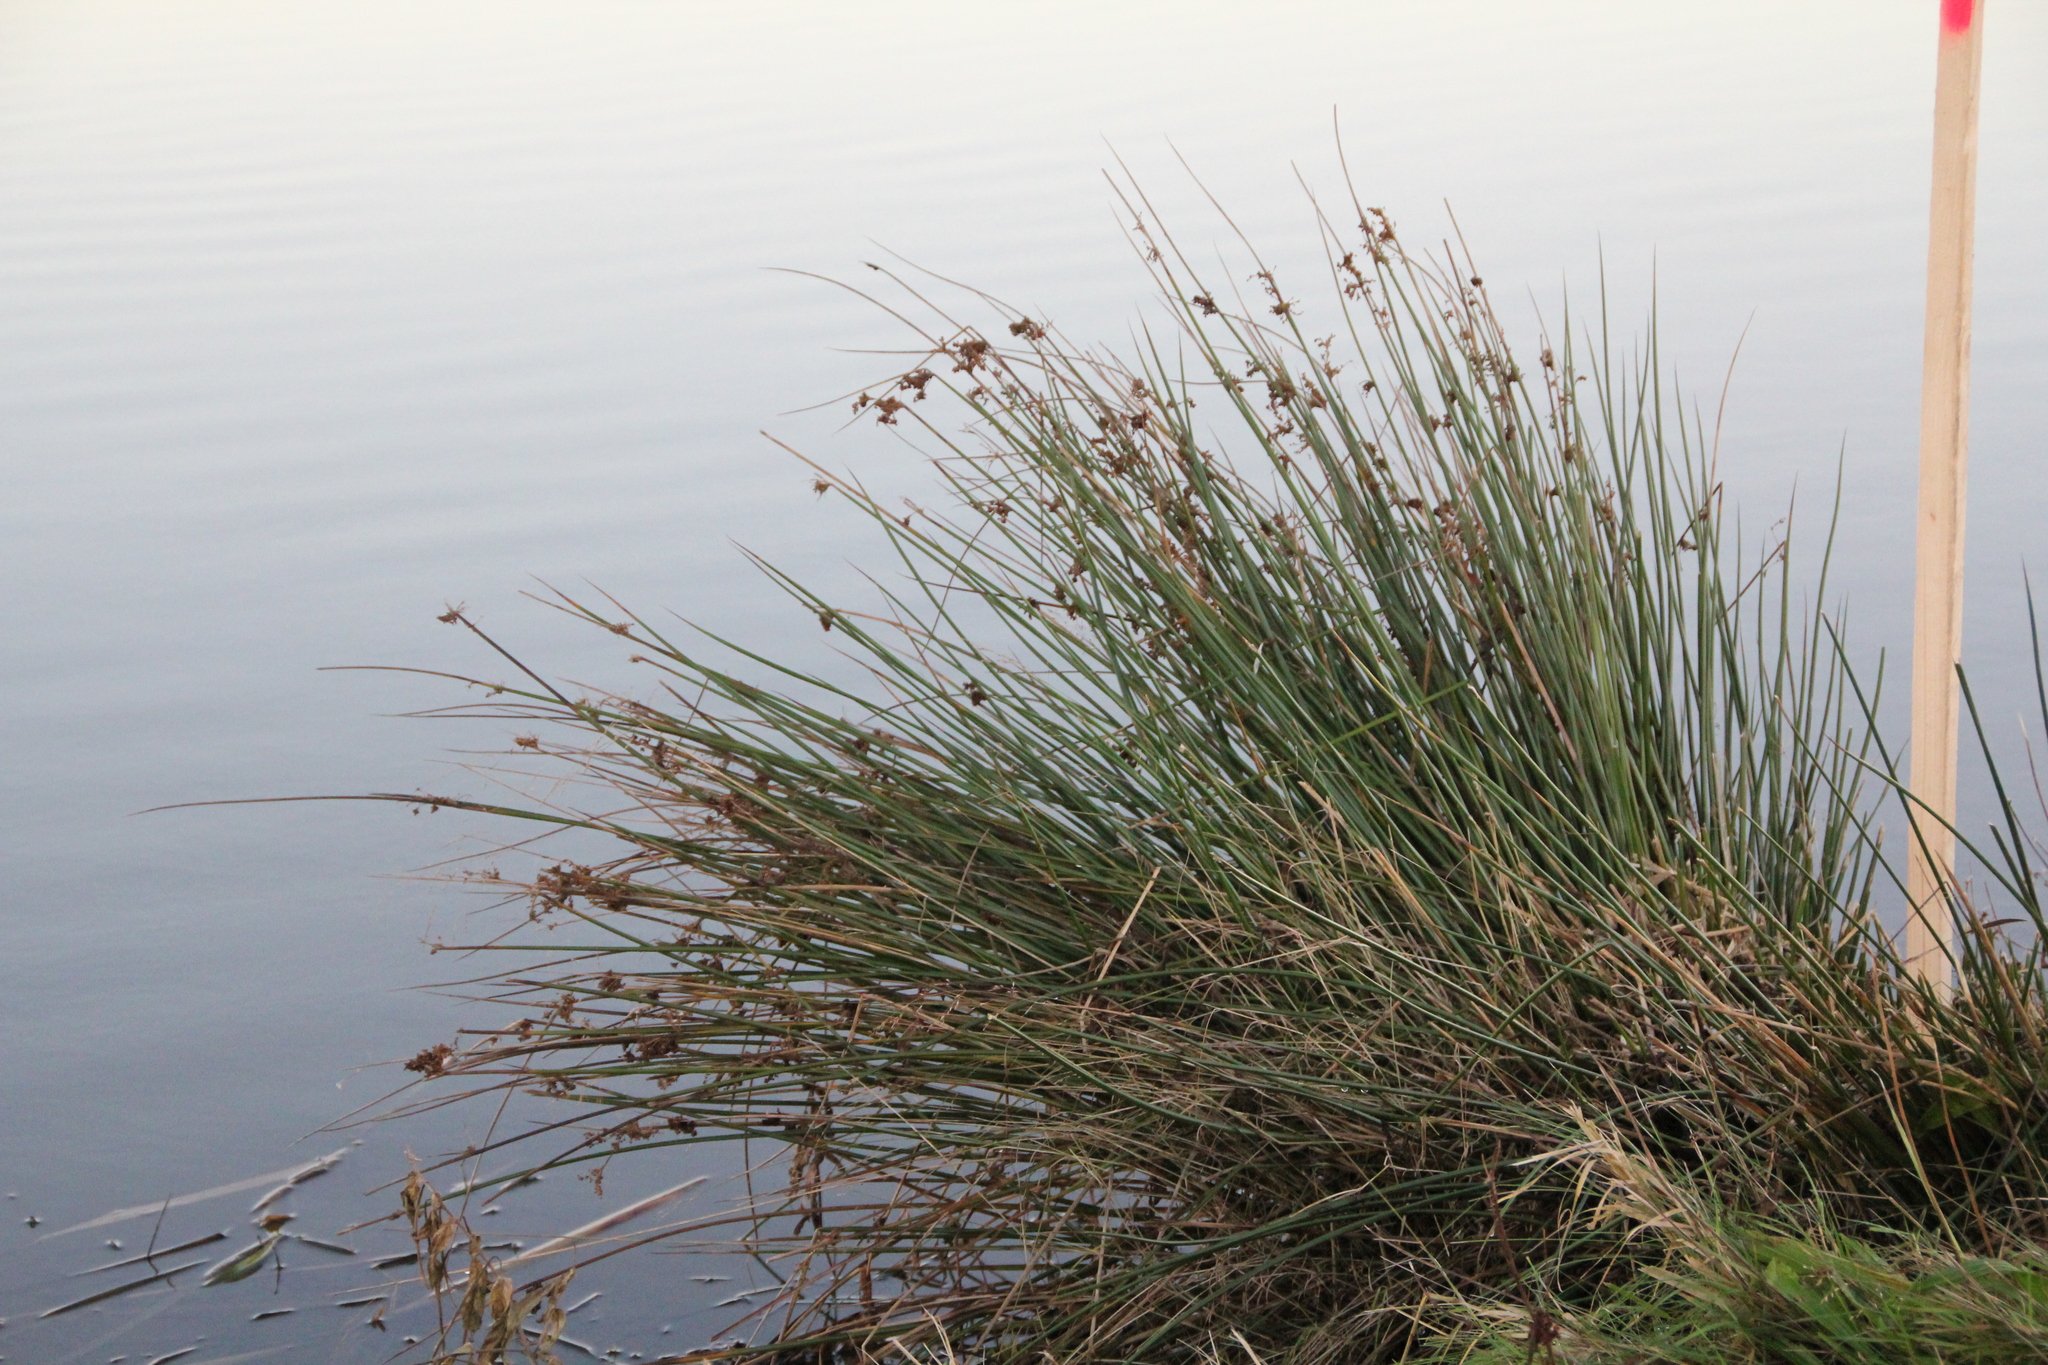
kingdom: Plantae
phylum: Tracheophyta
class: Liliopsida
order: Poales
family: Juncaceae
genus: Juncus
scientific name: Juncus effusus
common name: Soft rush
